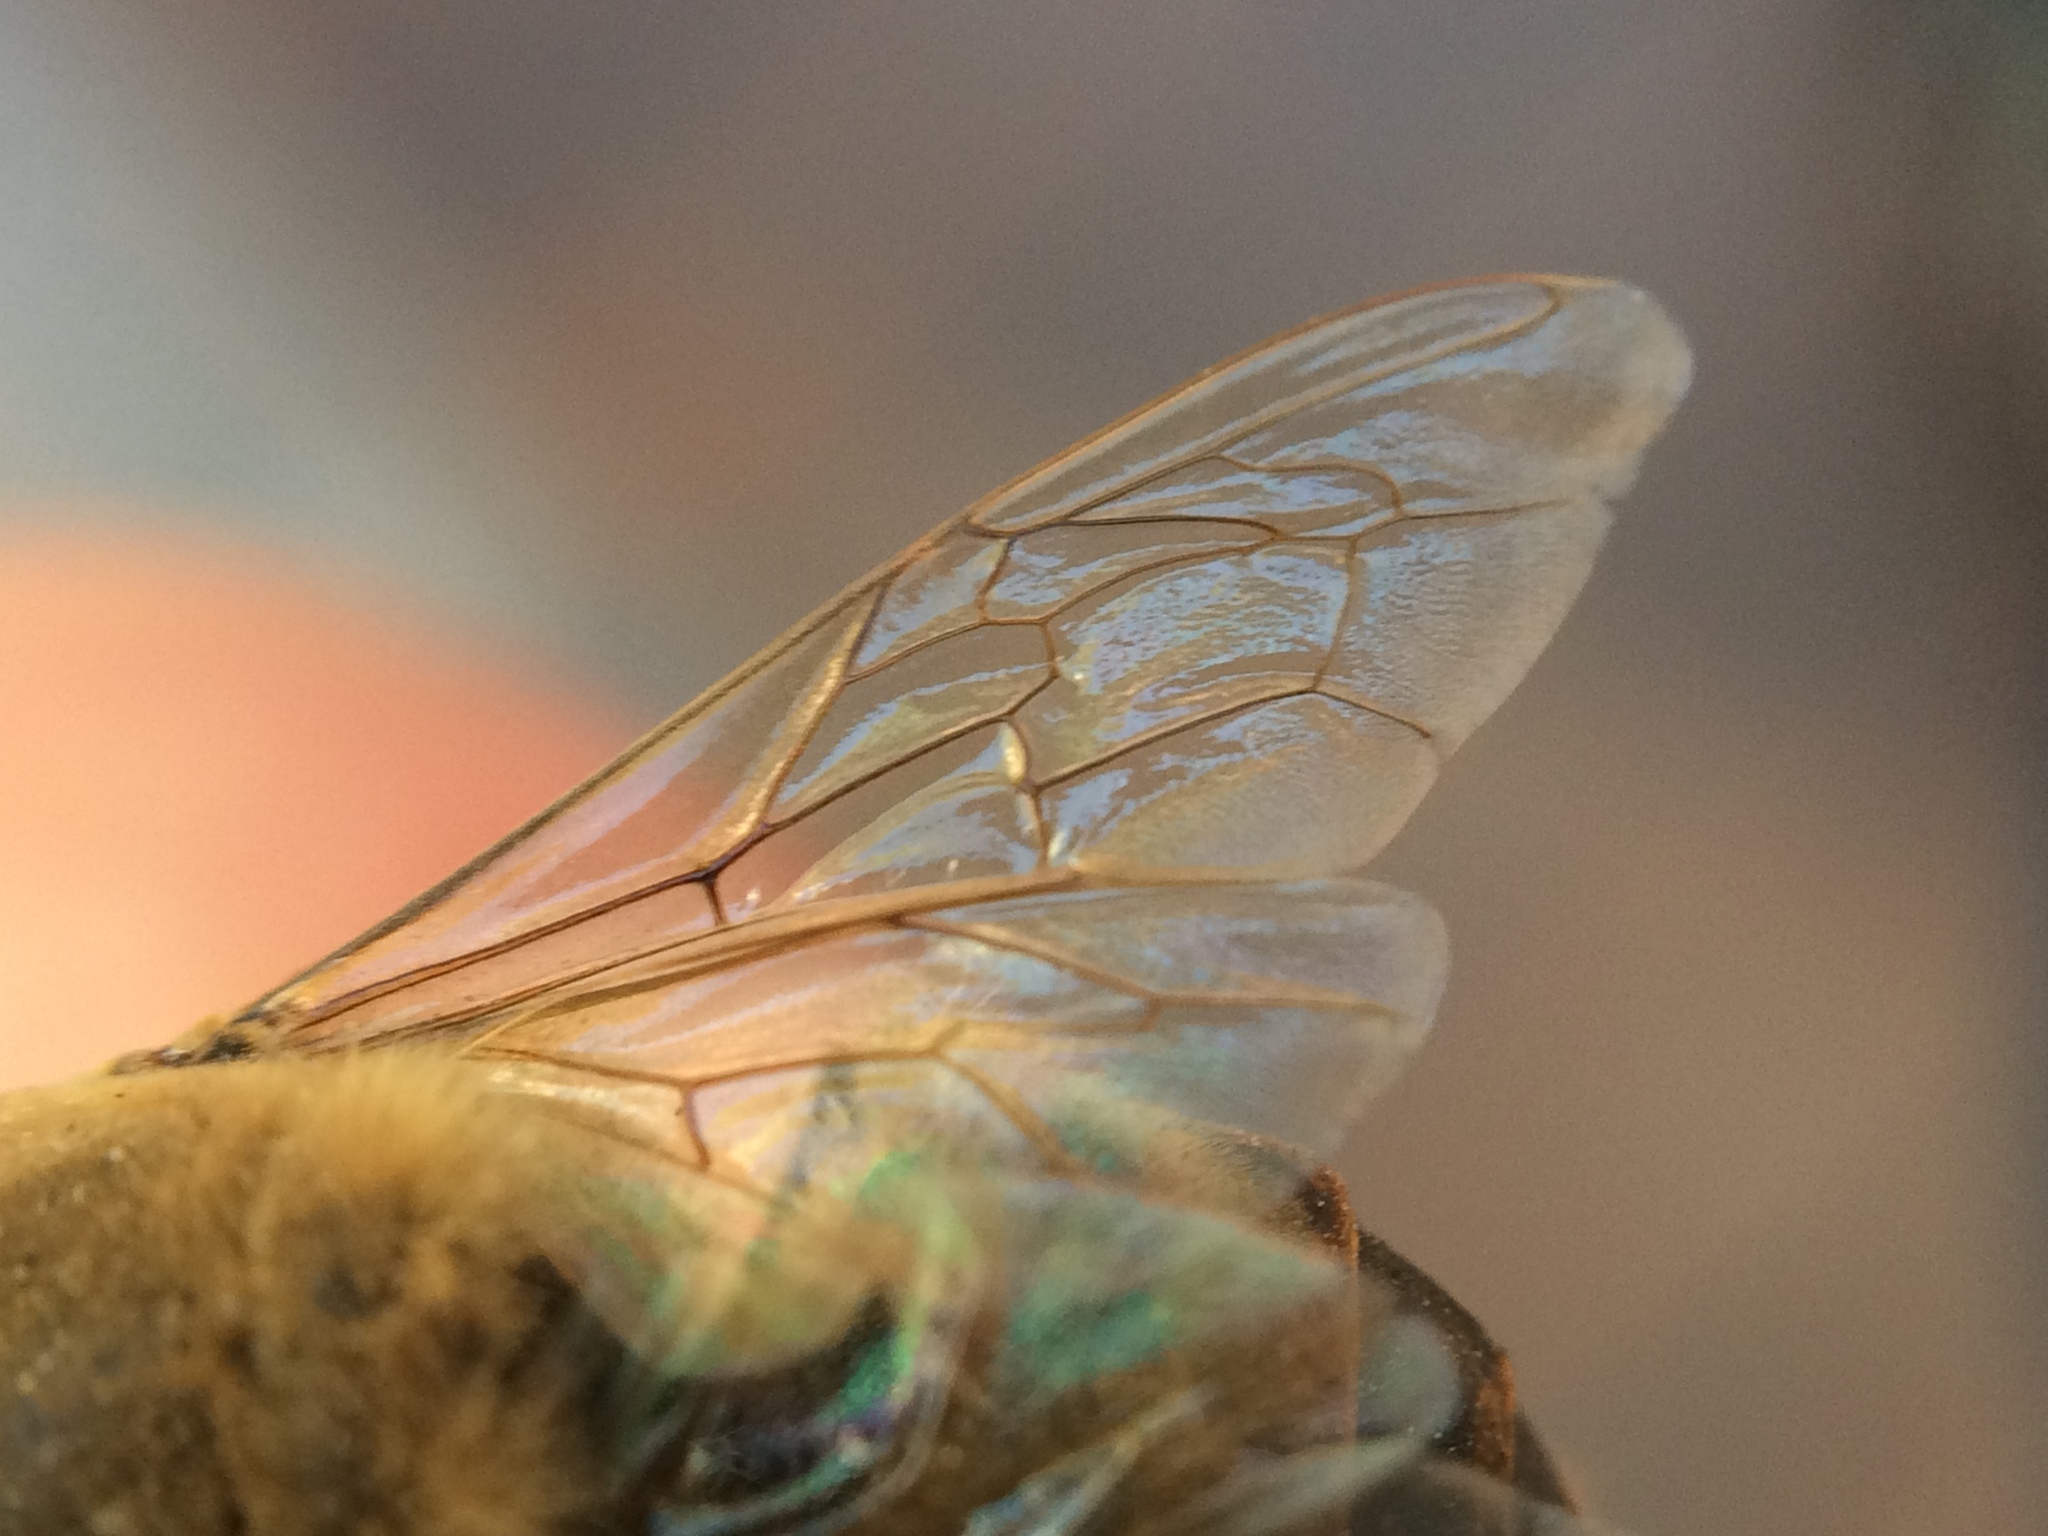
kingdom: Animalia
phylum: Arthropoda
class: Insecta
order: Hymenoptera
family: Apidae
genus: Apis
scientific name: Apis mellifera
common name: Honey bee
